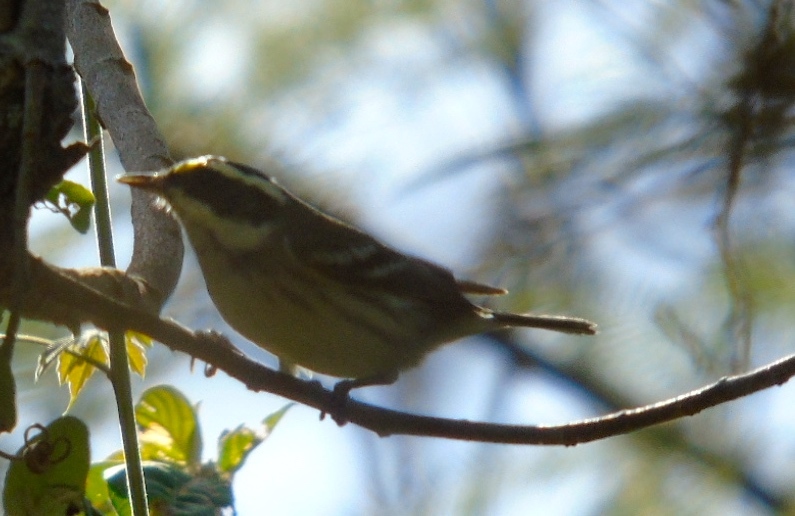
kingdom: Animalia
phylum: Chordata
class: Aves
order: Passeriformes
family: Parulidae
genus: Setophaga
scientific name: Setophaga nigrescens
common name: Black-throated gray warbler
